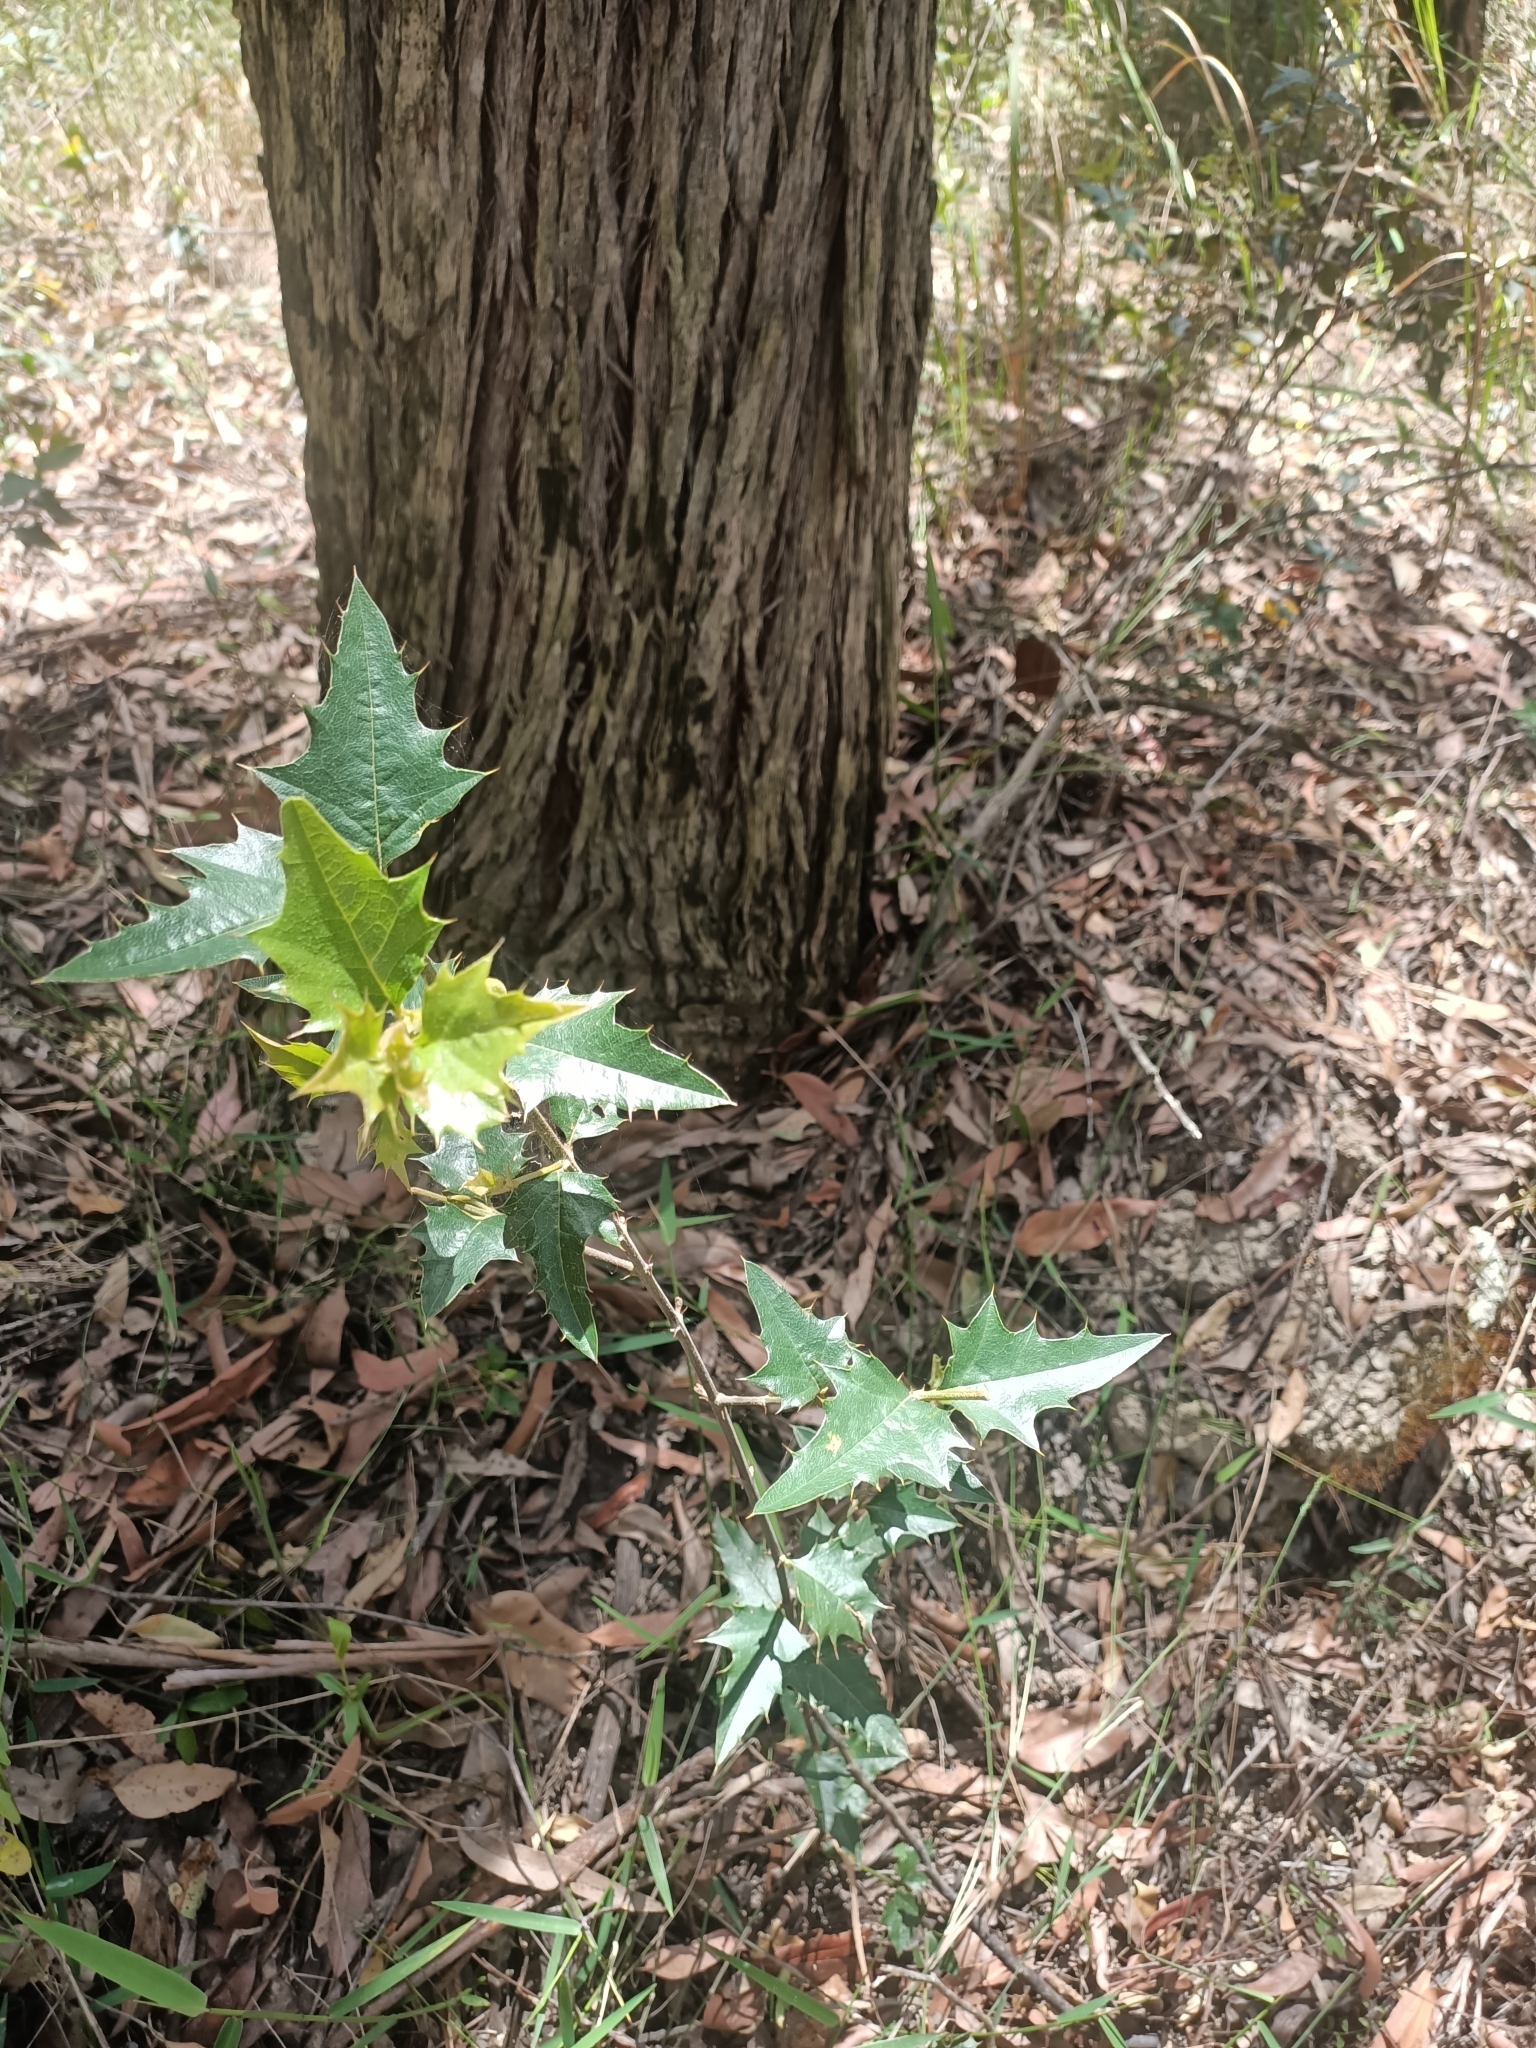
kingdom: Plantae
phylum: Tracheophyta
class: Magnoliopsida
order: Fabales
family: Fabaceae
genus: Podolobium
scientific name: Podolobium ilicifolium
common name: Native holly
